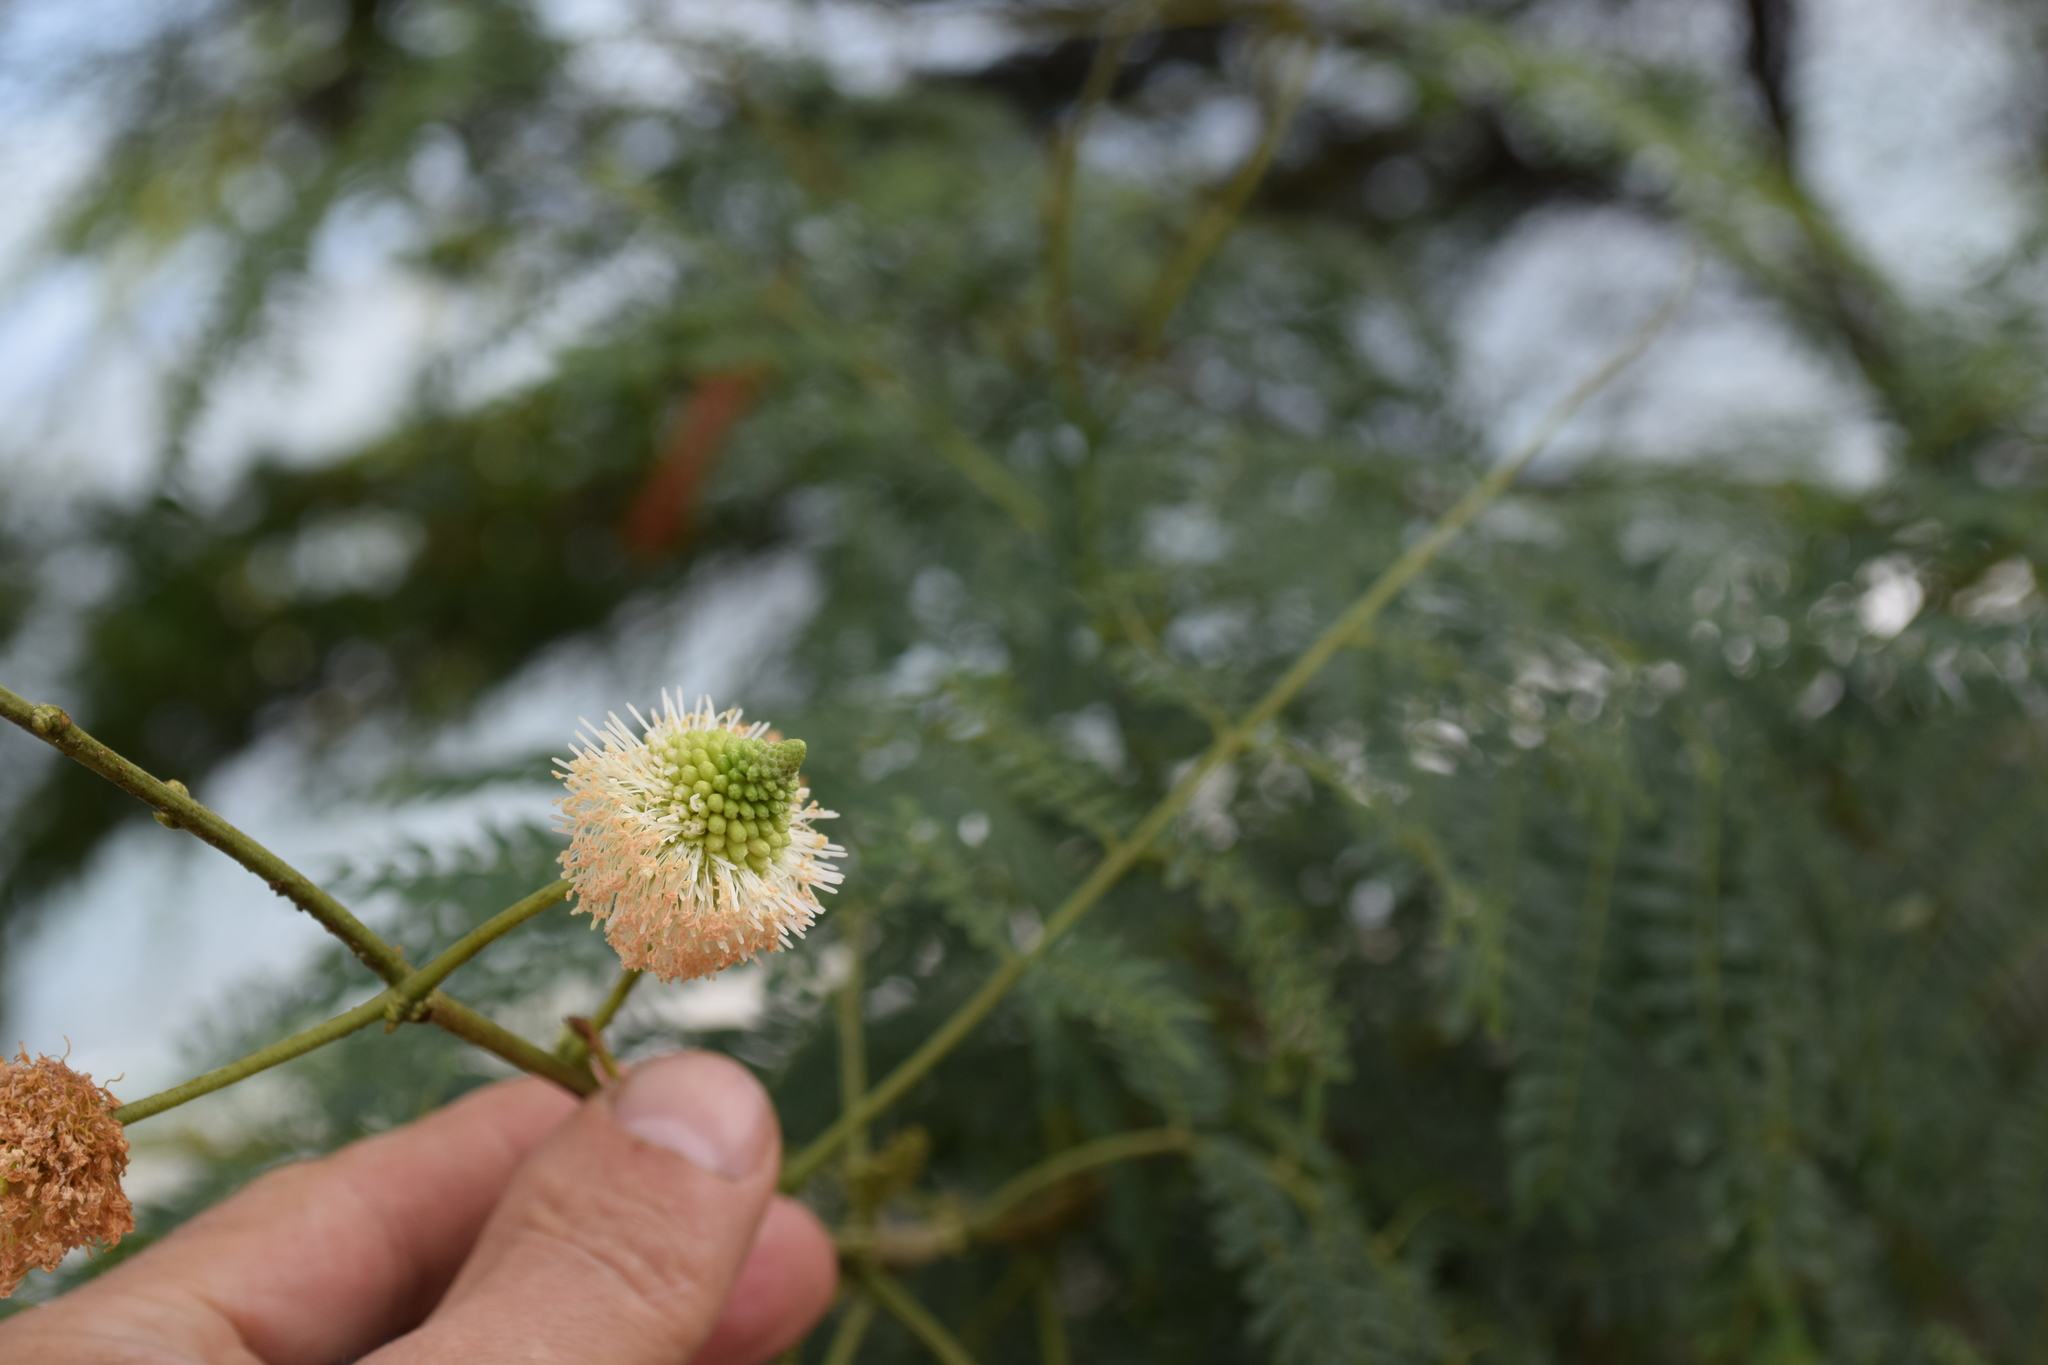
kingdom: Plantae
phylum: Tracheophyta
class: Magnoliopsida
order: Fabales
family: Fabaceae
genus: Leucaena
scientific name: Leucaena leucocephala
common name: White leadtree
